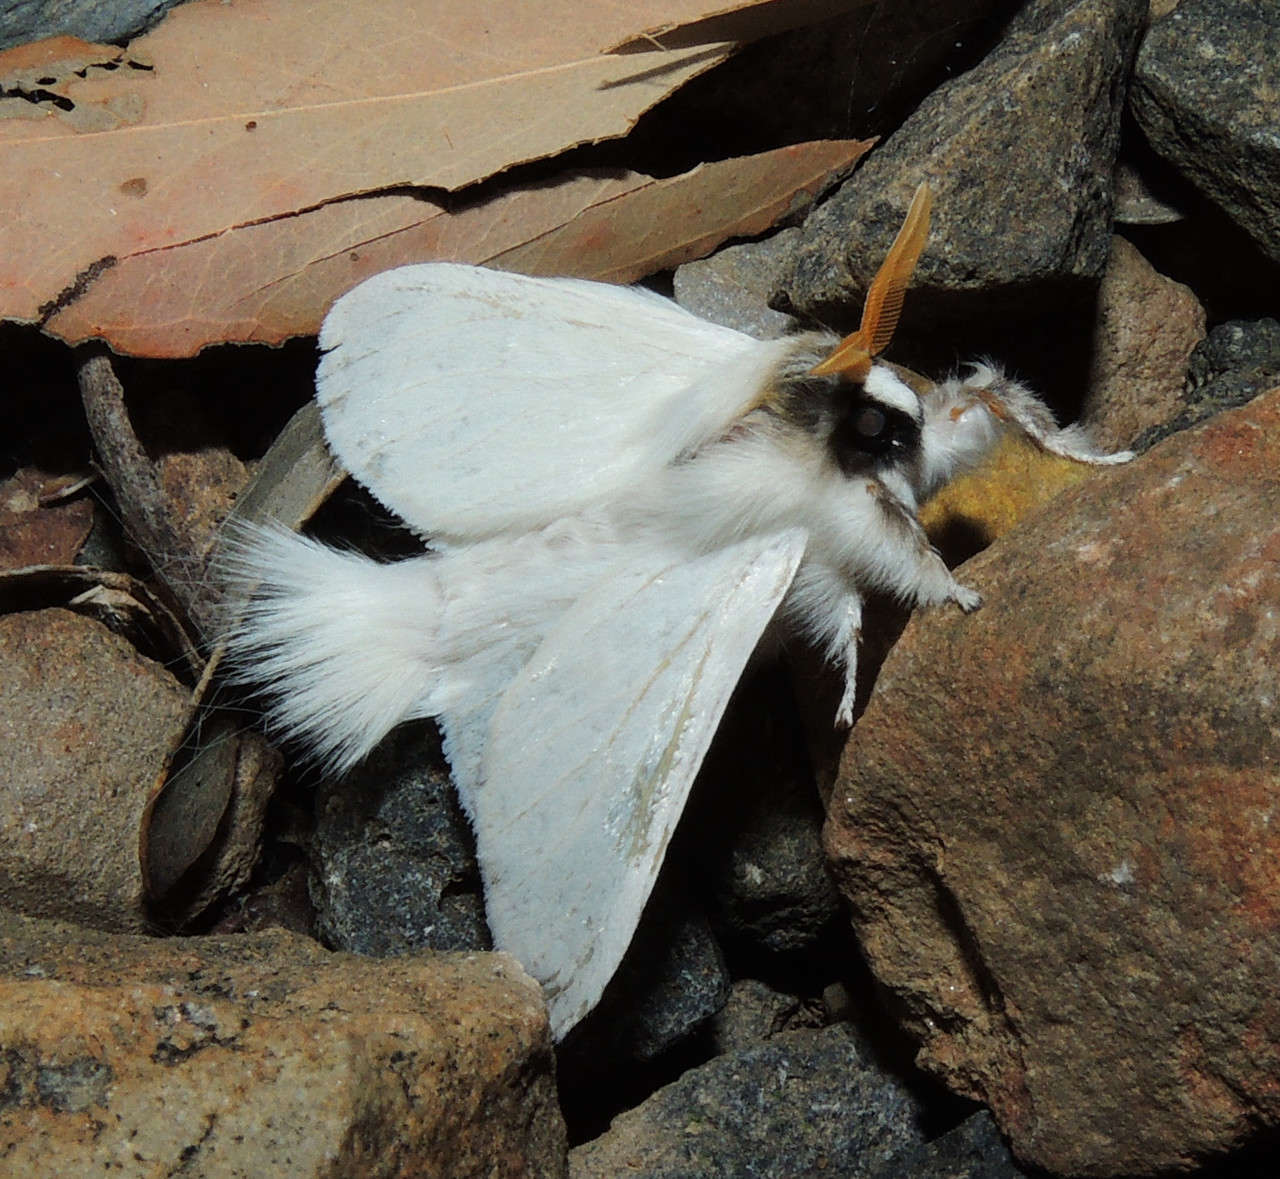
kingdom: Animalia
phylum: Arthropoda
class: Insecta
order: Lepidoptera
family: Notodontidae
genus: Trichiocercus
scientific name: Trichiocercus sparshalli
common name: Long-tailed satin
